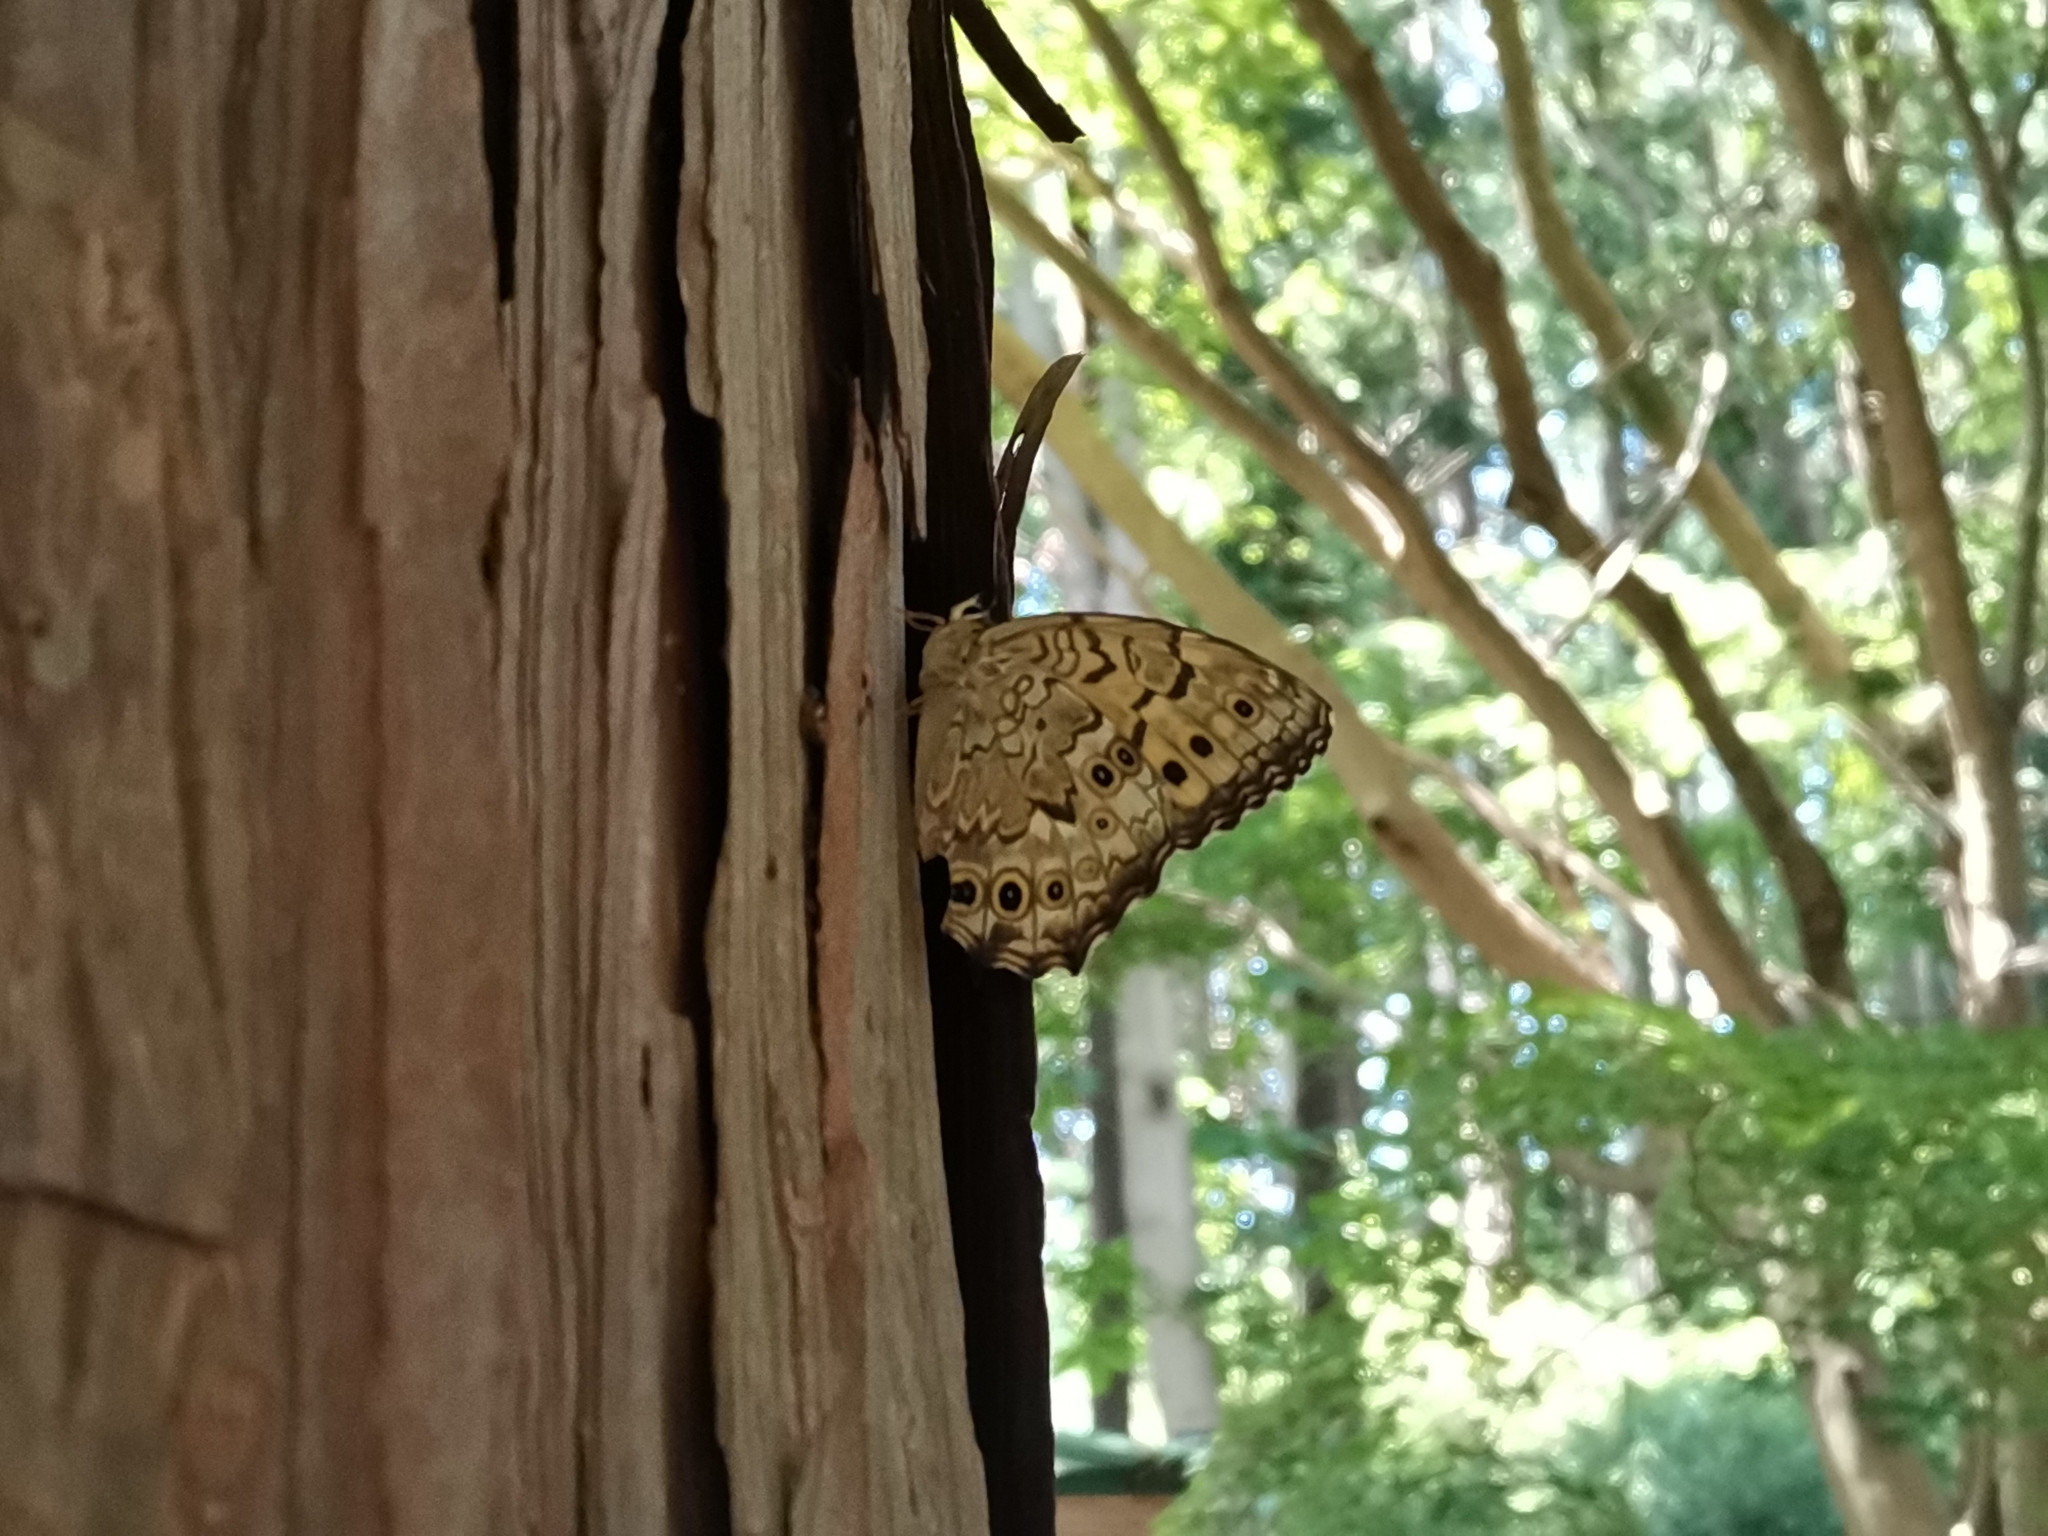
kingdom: Animalia
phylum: Arthropoda
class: Insecta
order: Lepidoptera
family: Nymphalidae
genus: Neope
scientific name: Neope goschkevitschii
